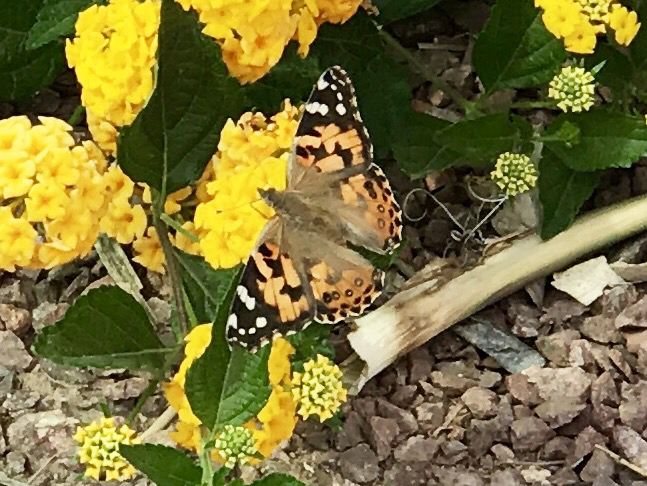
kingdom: Animalia
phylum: Arthropoda
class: Insecta
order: Lepidoptera
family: Nymphalidae
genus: Vanessa
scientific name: Vanessa cardui
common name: Painted lady
